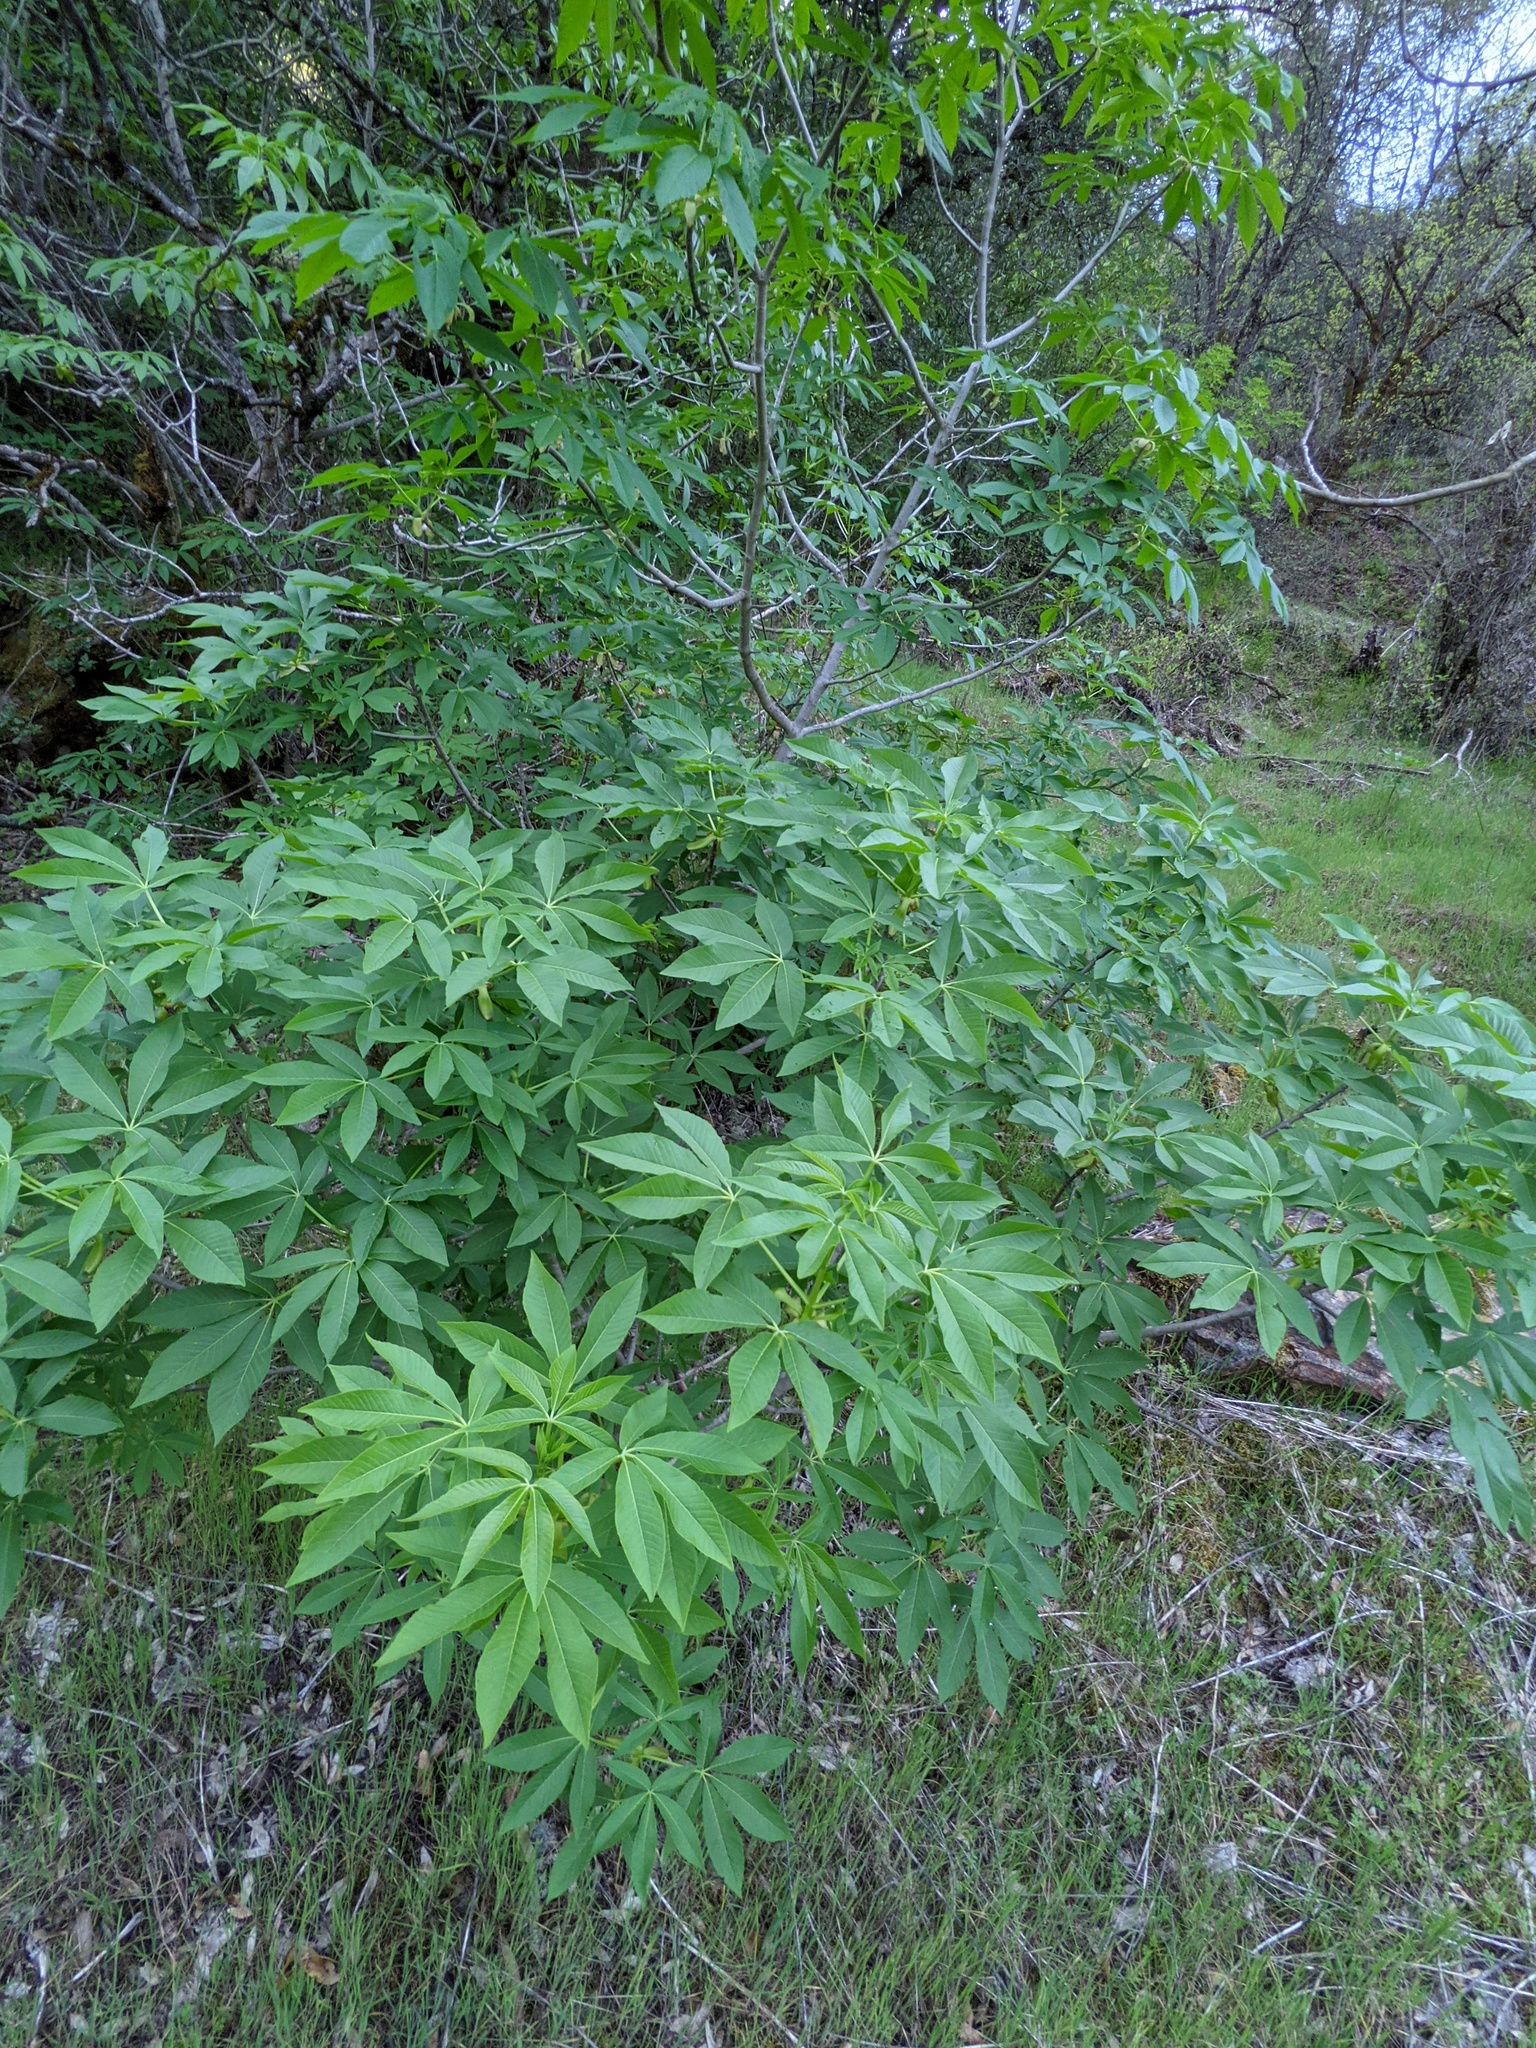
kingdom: Plantae
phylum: Tracheophyta
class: Magnoliopsida
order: Sapindales
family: Sapindaceae
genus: Aesculus
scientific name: Aesculus californica
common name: California buckeye
